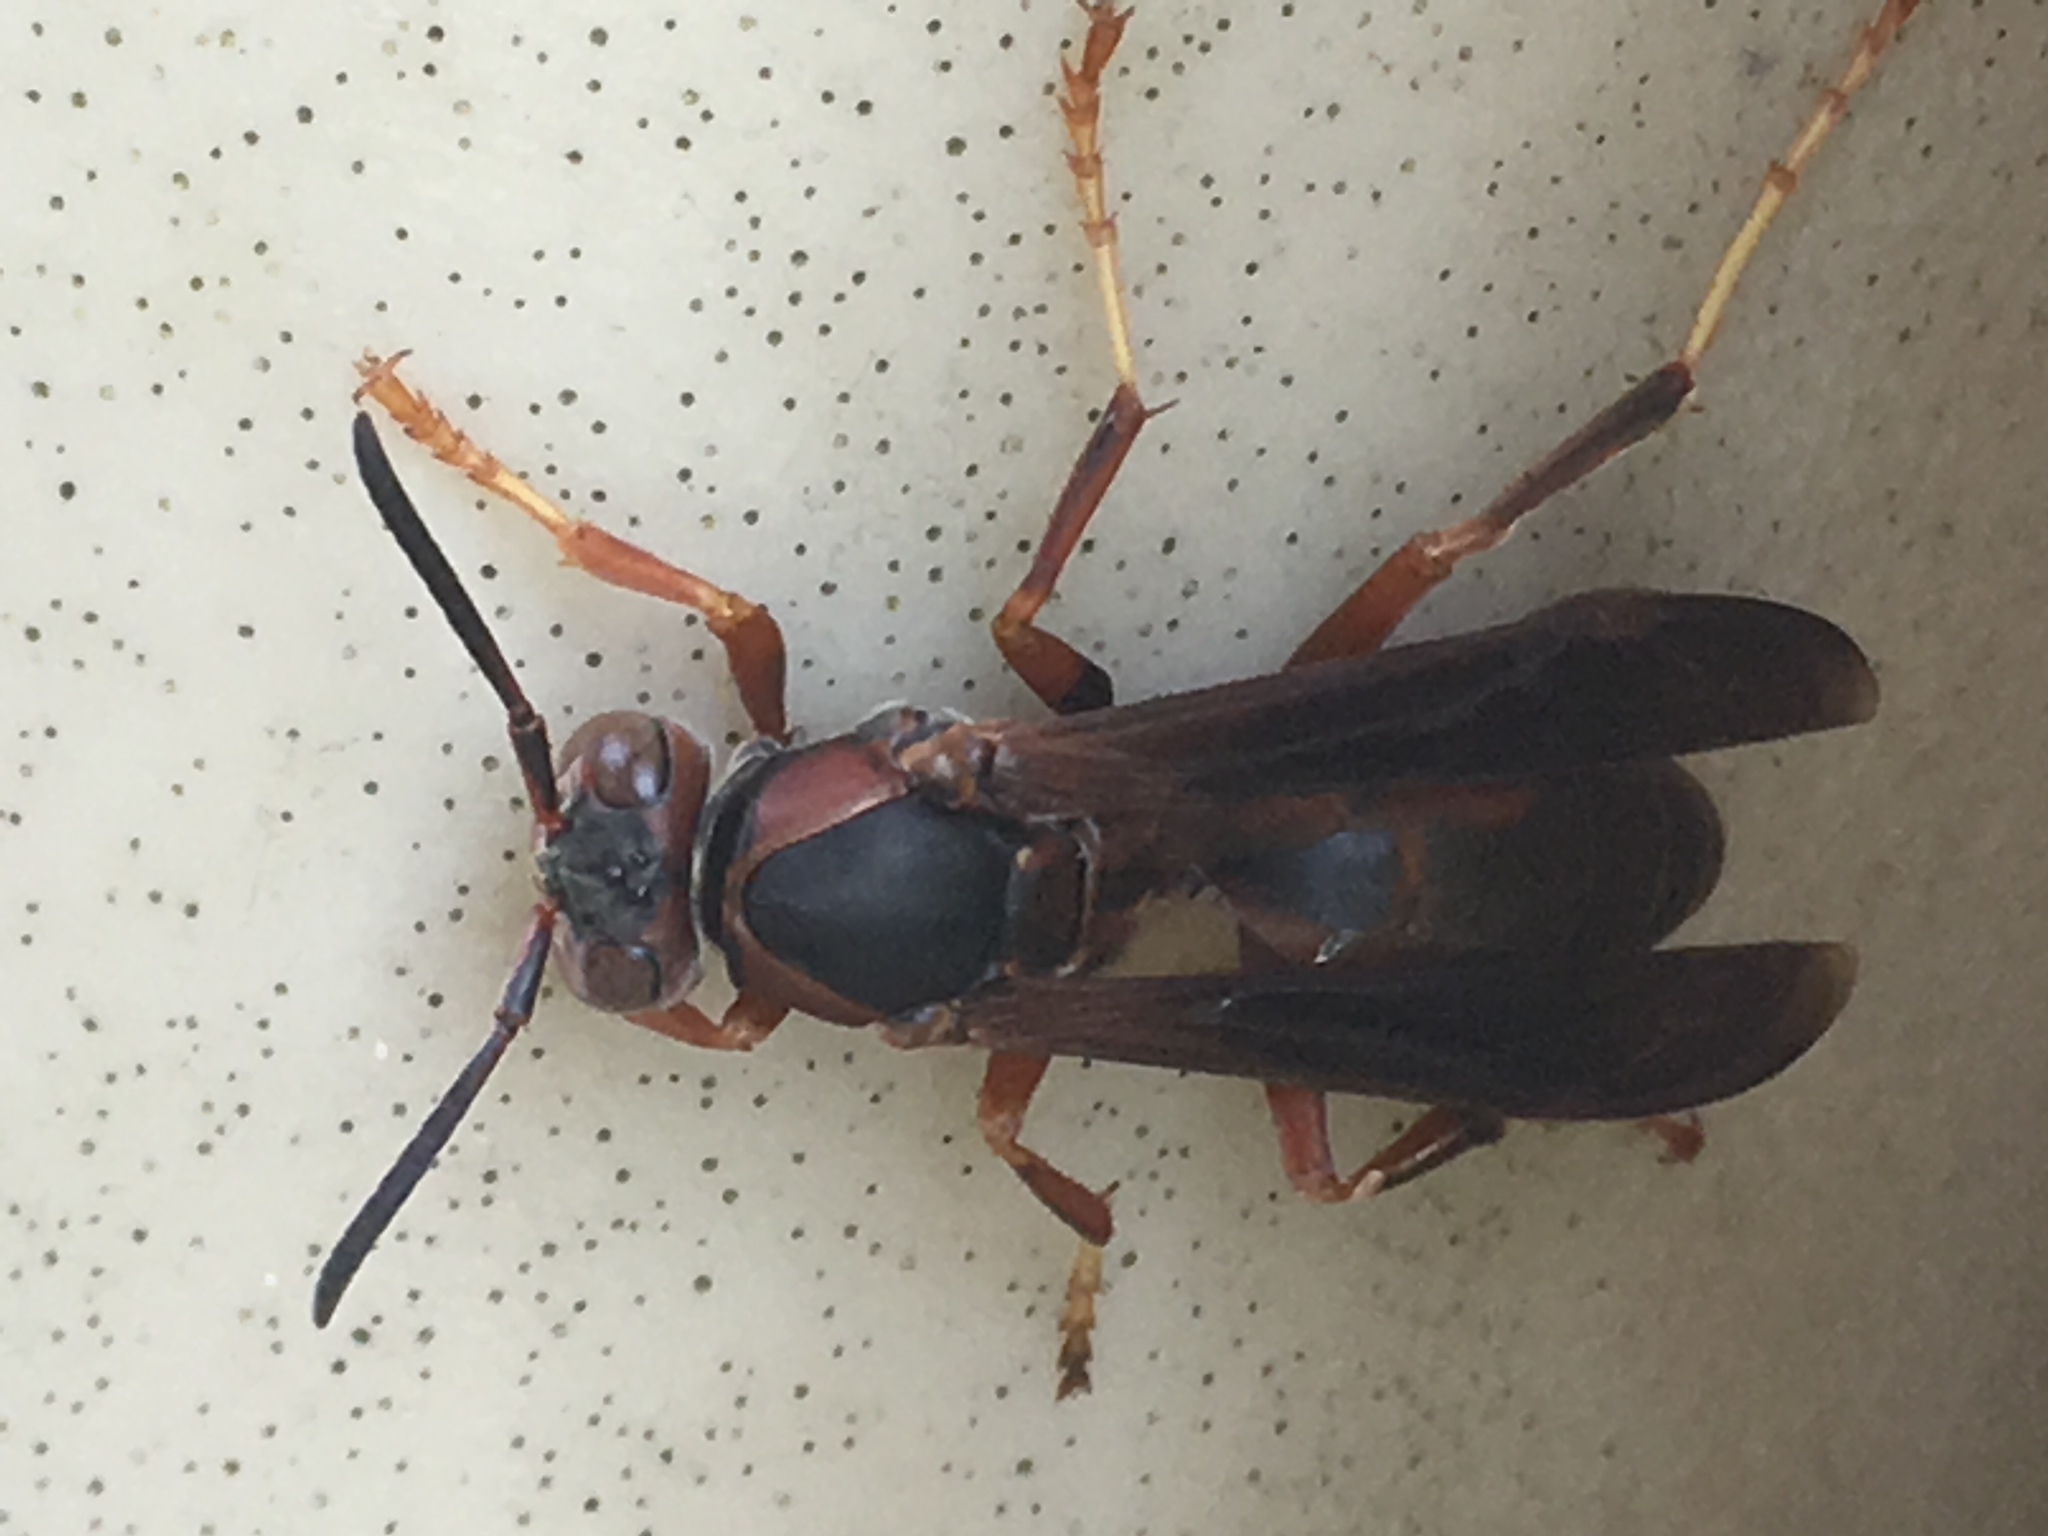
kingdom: Animalia
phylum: Arthropoda
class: Insecta
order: Hymenoptera
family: Eumenidae
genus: Polistes
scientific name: Polistes fuscatus
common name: Dark paper wasp
